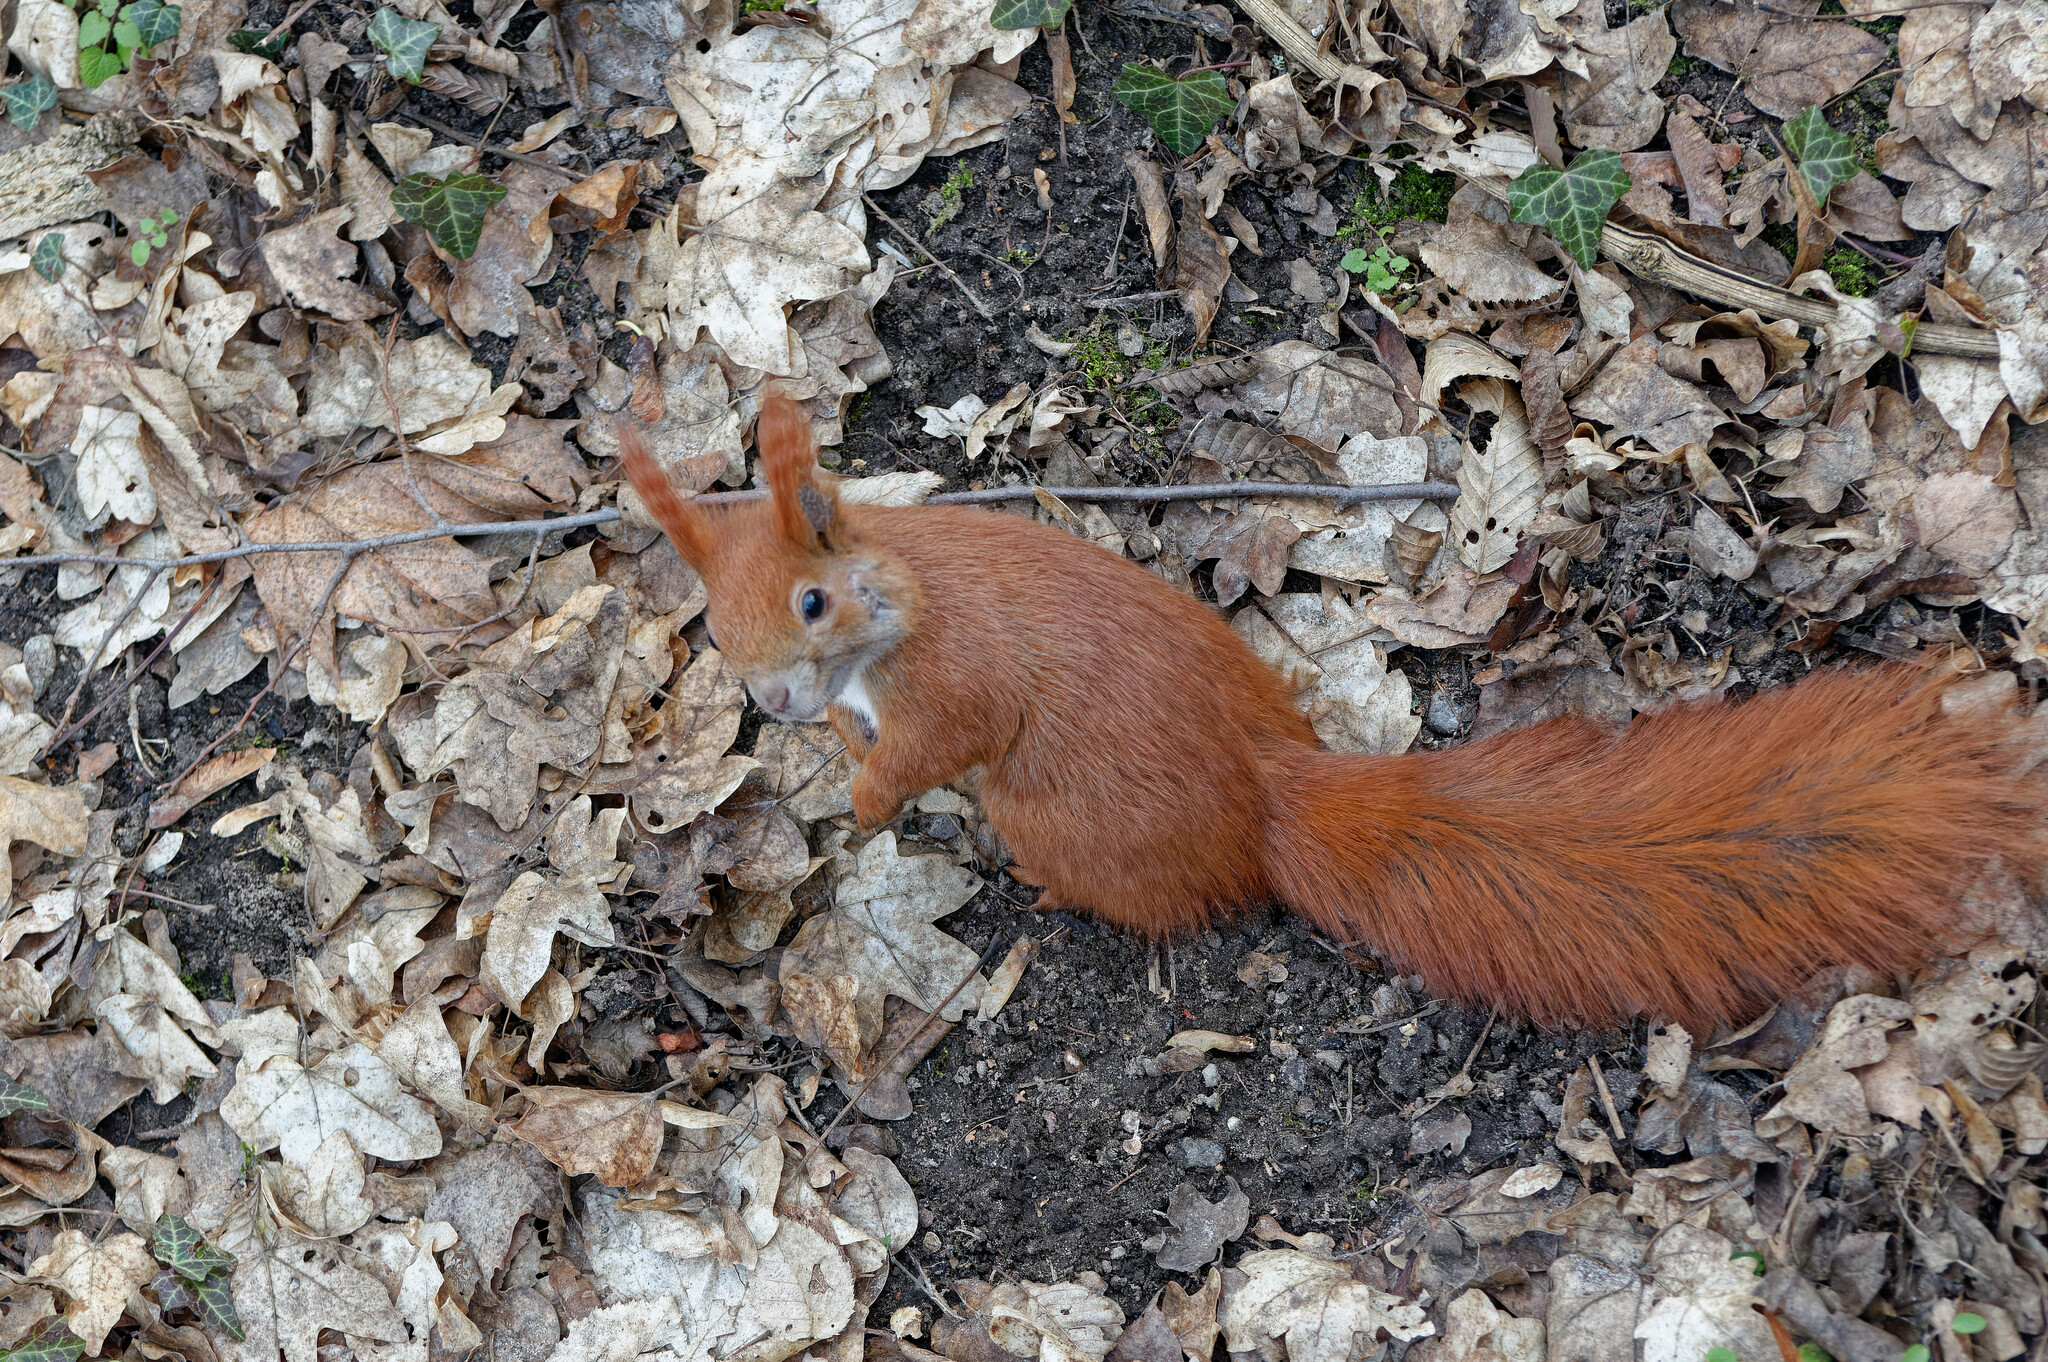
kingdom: Animalia
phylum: Chordata
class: Mammalia
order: Rodentia
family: Sciuridae
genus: Sciurus
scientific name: Sciurus vulgaris
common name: Eurasian red squirrel
